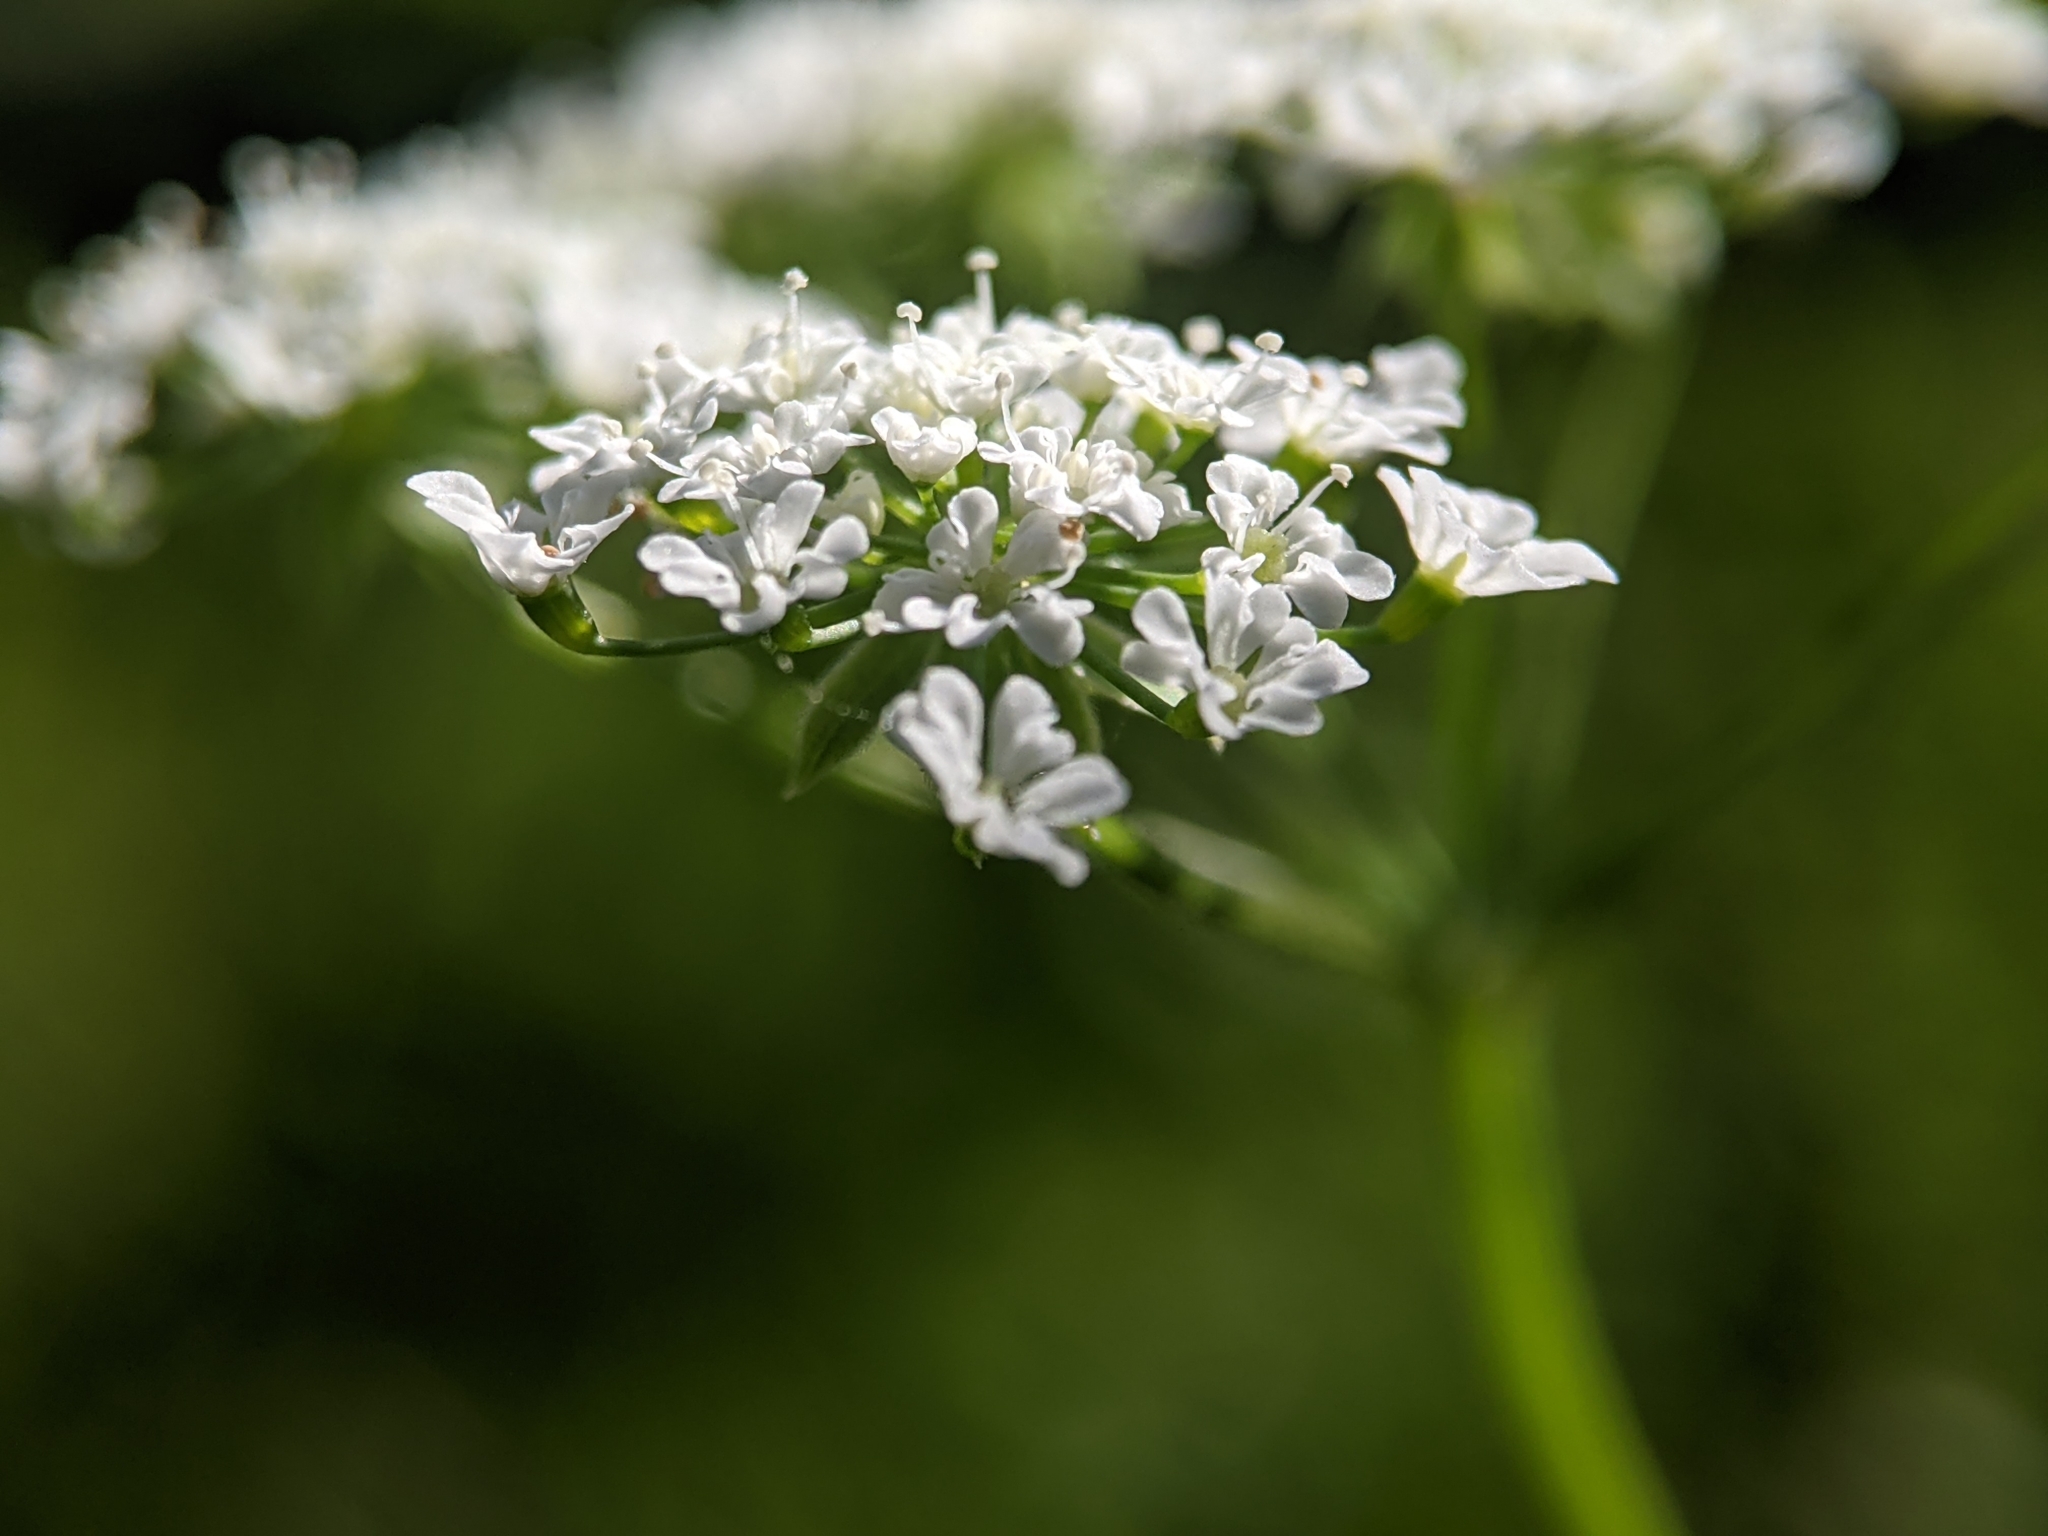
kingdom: Plantae
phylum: Tracheophyta
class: Magnoliopsida
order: Apiales
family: Apiaceae
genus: Chaerophyllum
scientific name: Chaerophyllum temulum
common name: Rough chervil
